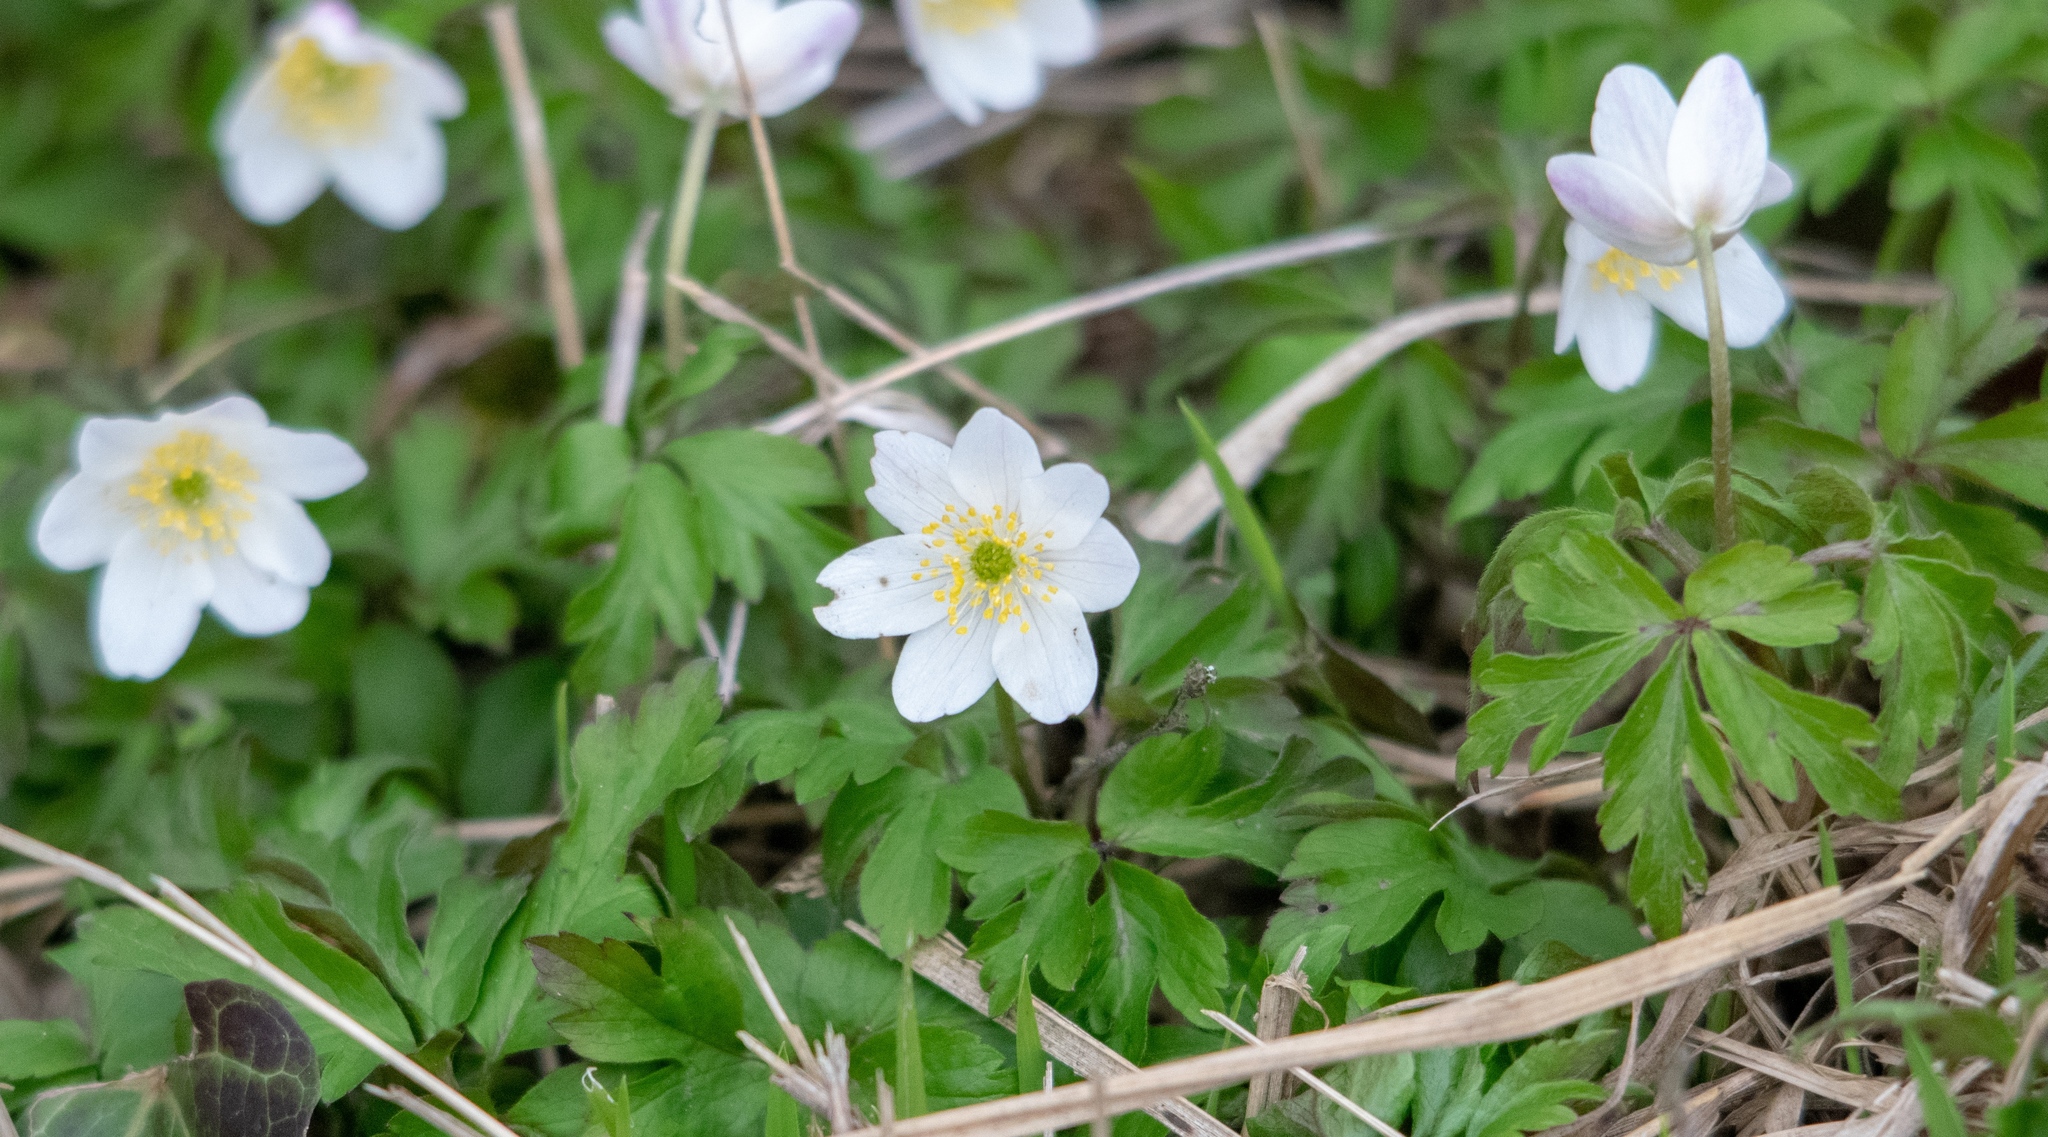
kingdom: Plantae
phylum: Tracheophyta
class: Magnoliopsida
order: Ranunculales
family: Ranunculaceae
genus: Anemone
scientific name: Anemone nemorosa
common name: Wood anemone
